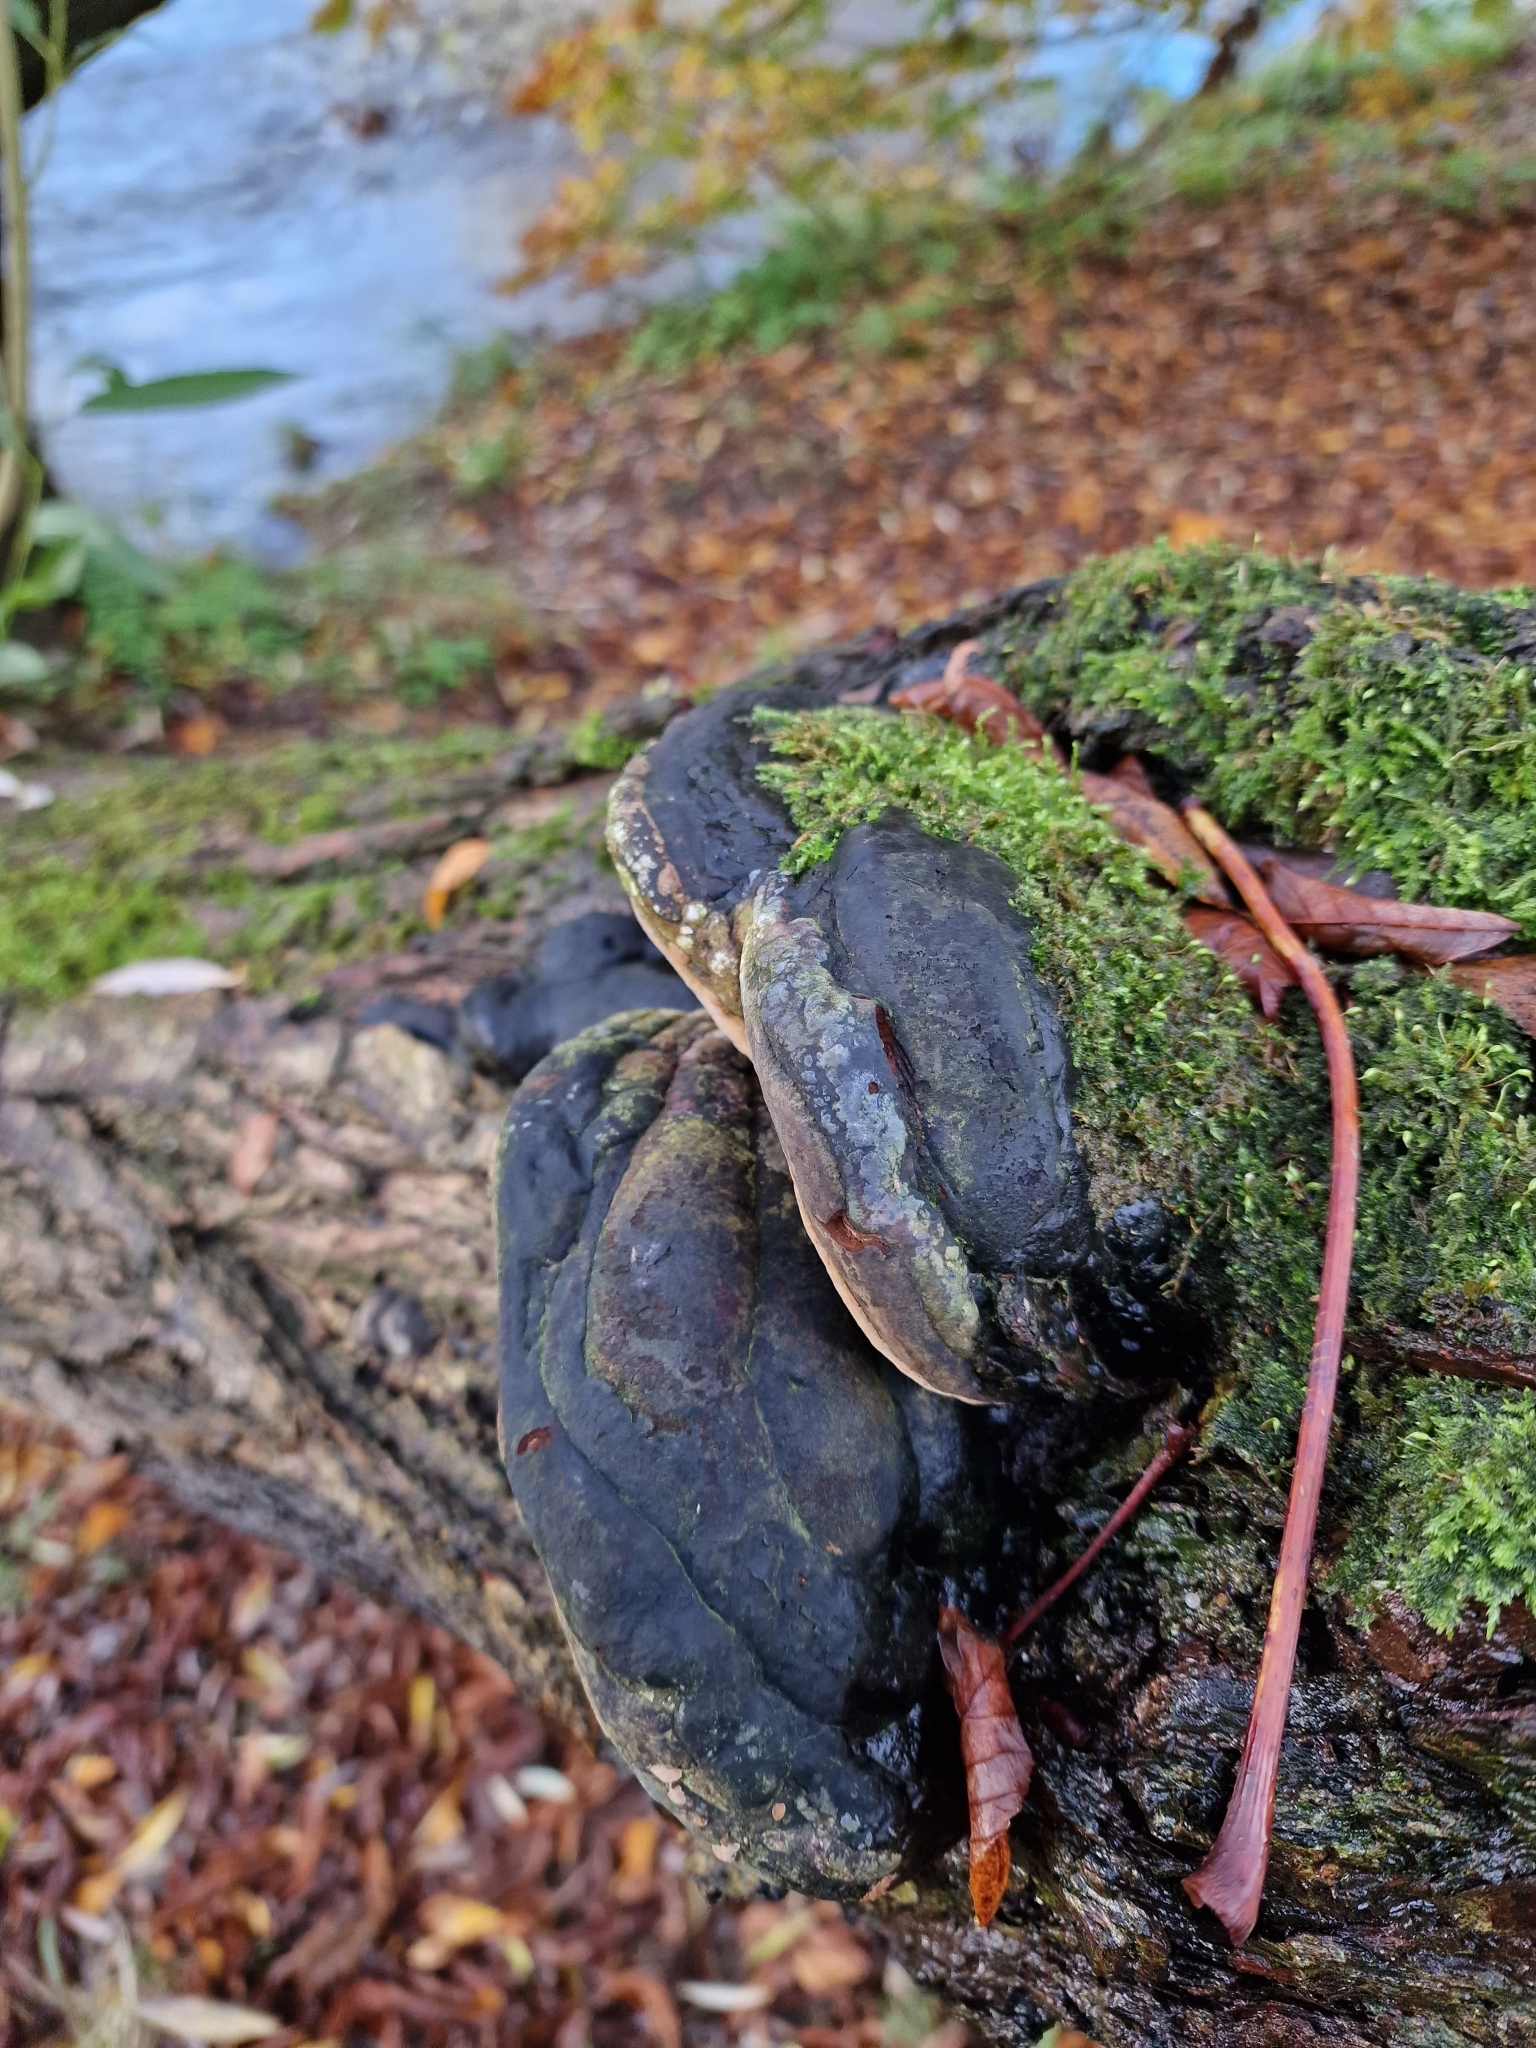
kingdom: Fungi
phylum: Basidiomycota
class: Agaricomycetes
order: Hymenochaetales
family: Hymenochaetaceae
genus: Phellinus
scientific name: Phellinus igniarius
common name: Willow bracket
